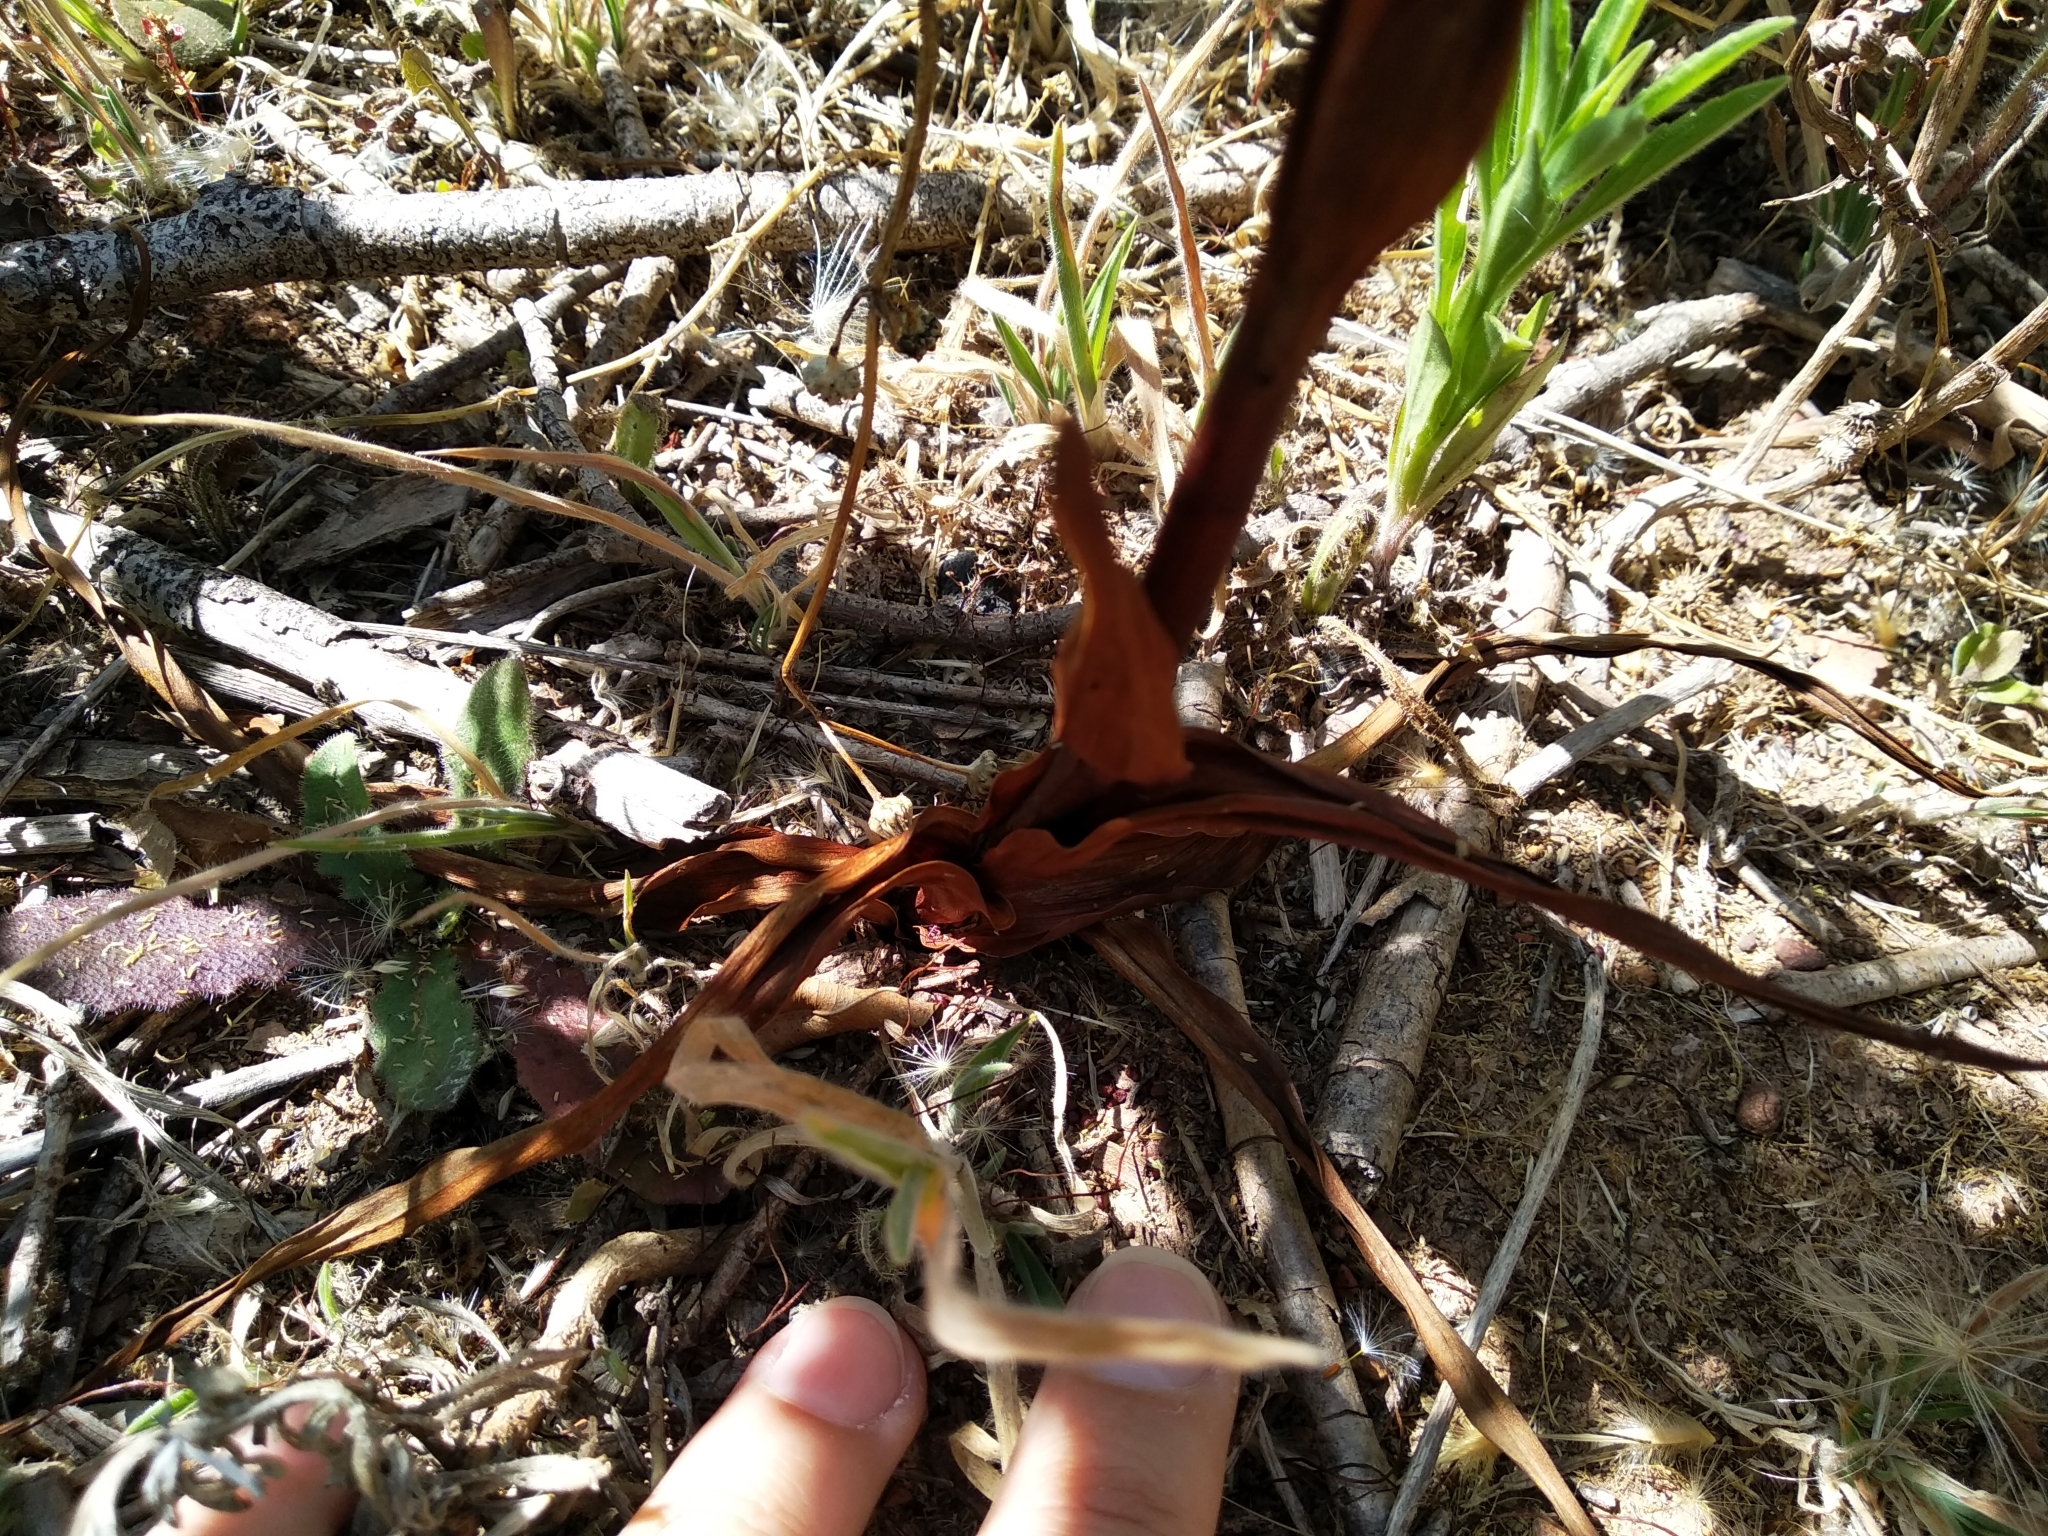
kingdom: Plantae
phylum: Tracheophyta
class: Liliopsida
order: Liliales
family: Colchicaceae
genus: Baeometra
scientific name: Baeometra uniflora
